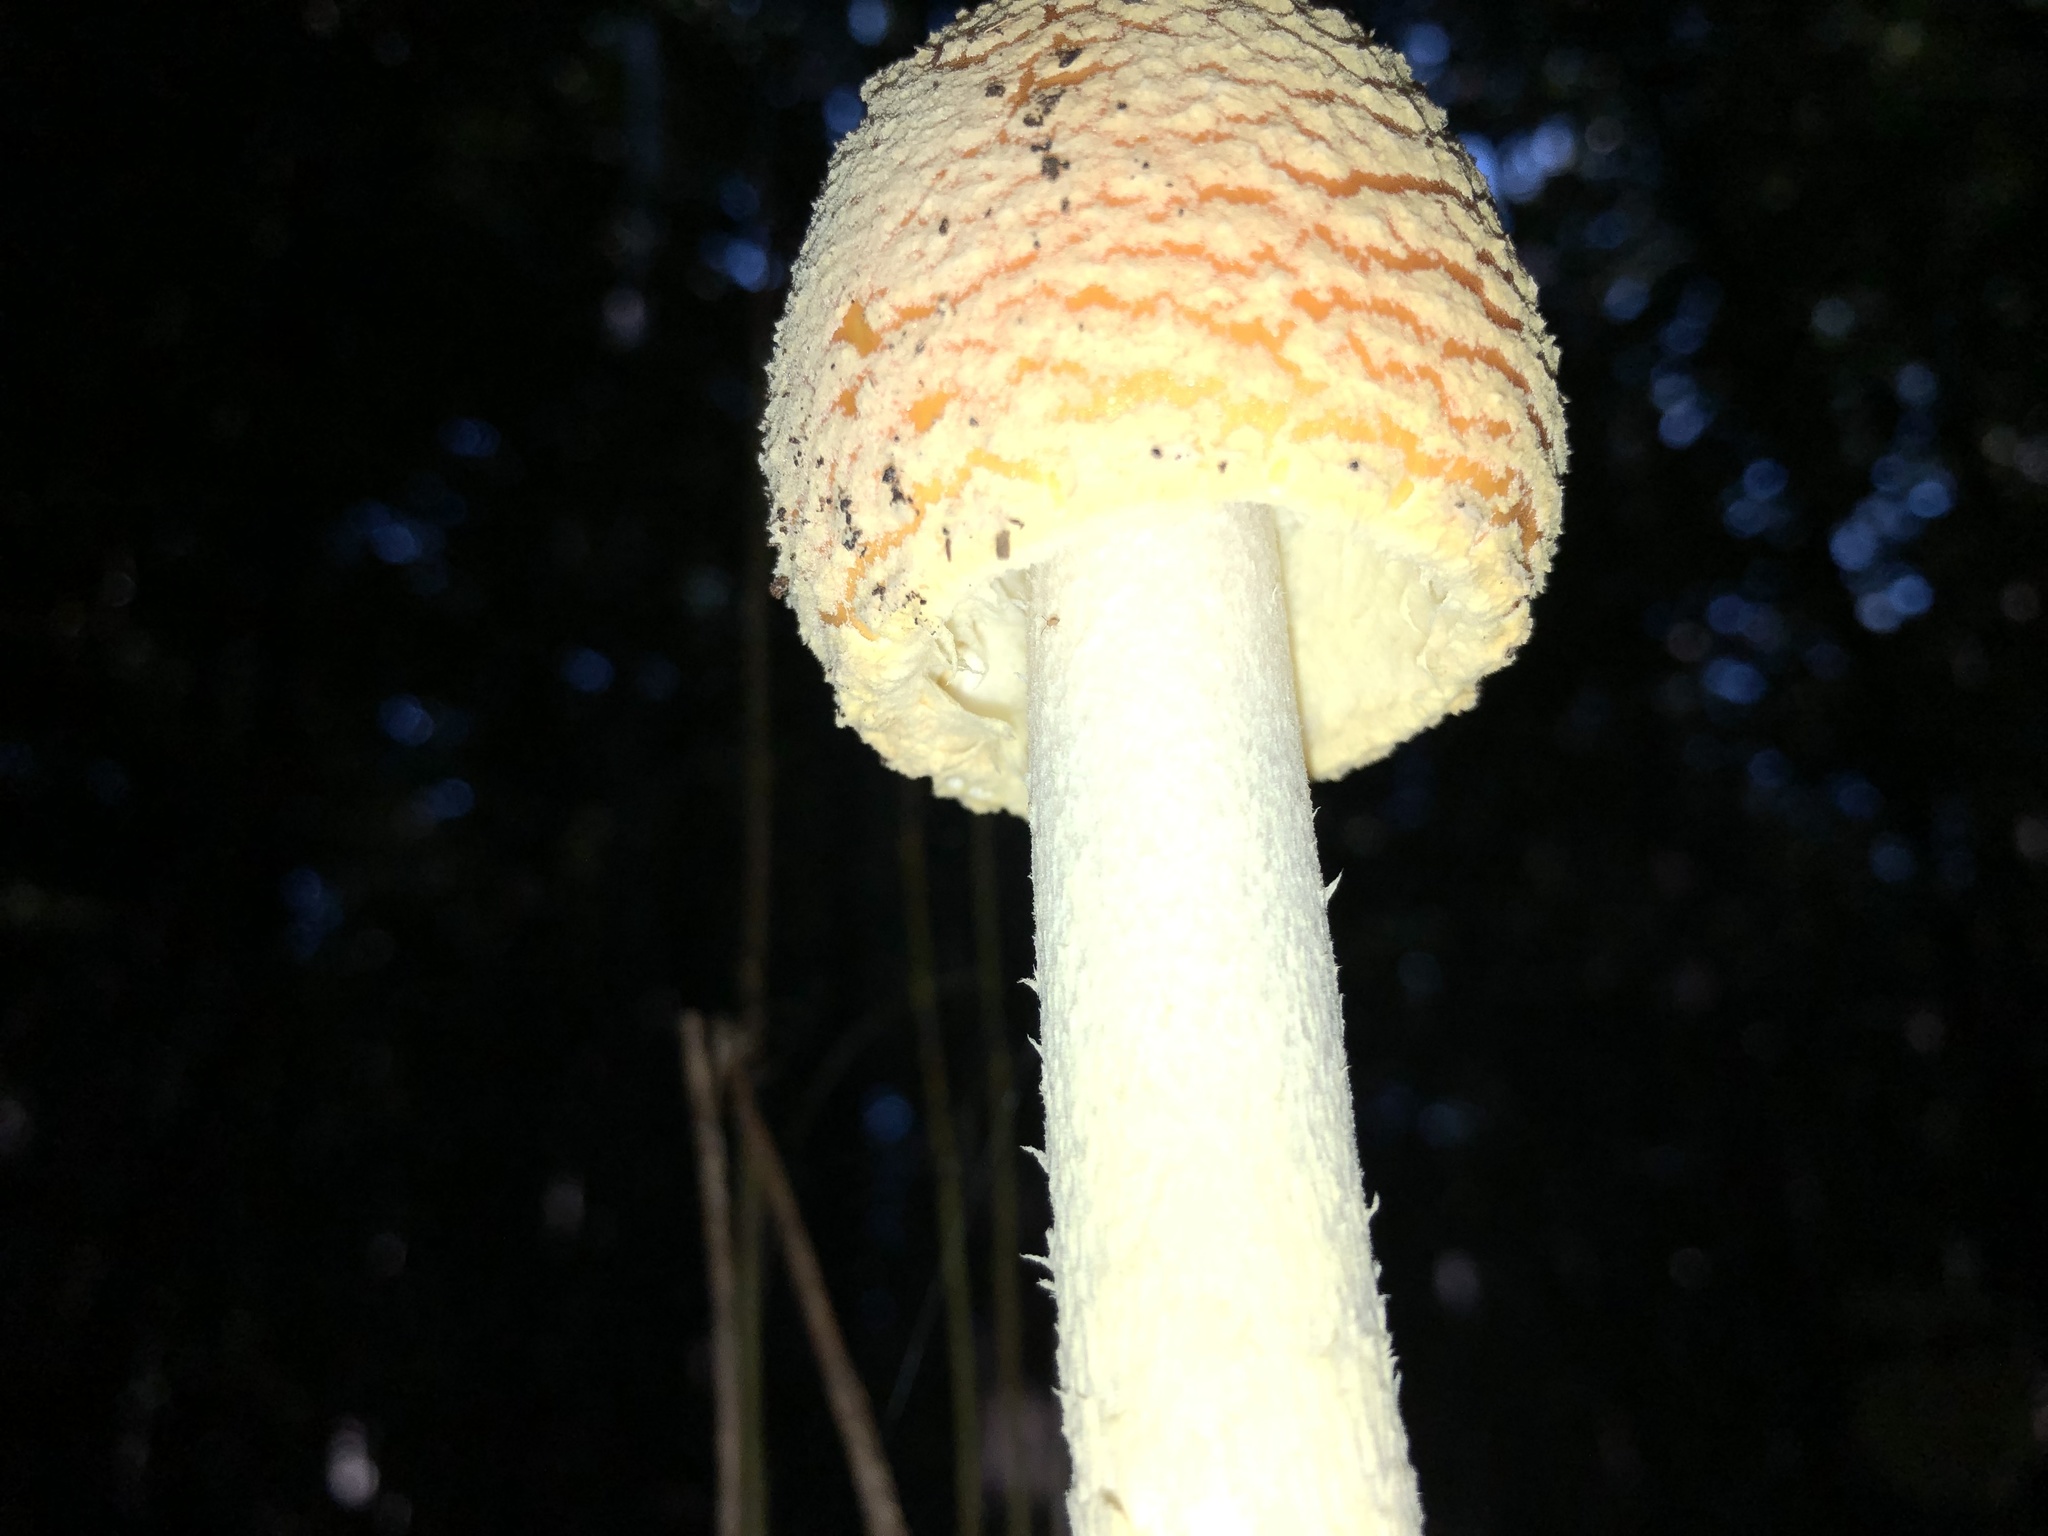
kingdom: Fungi
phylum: Basidiomycota
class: Agaricomycetes
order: Agaricales
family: Amanitaceae
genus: Amanita
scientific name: Amanita muscaria
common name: Fly agaric
